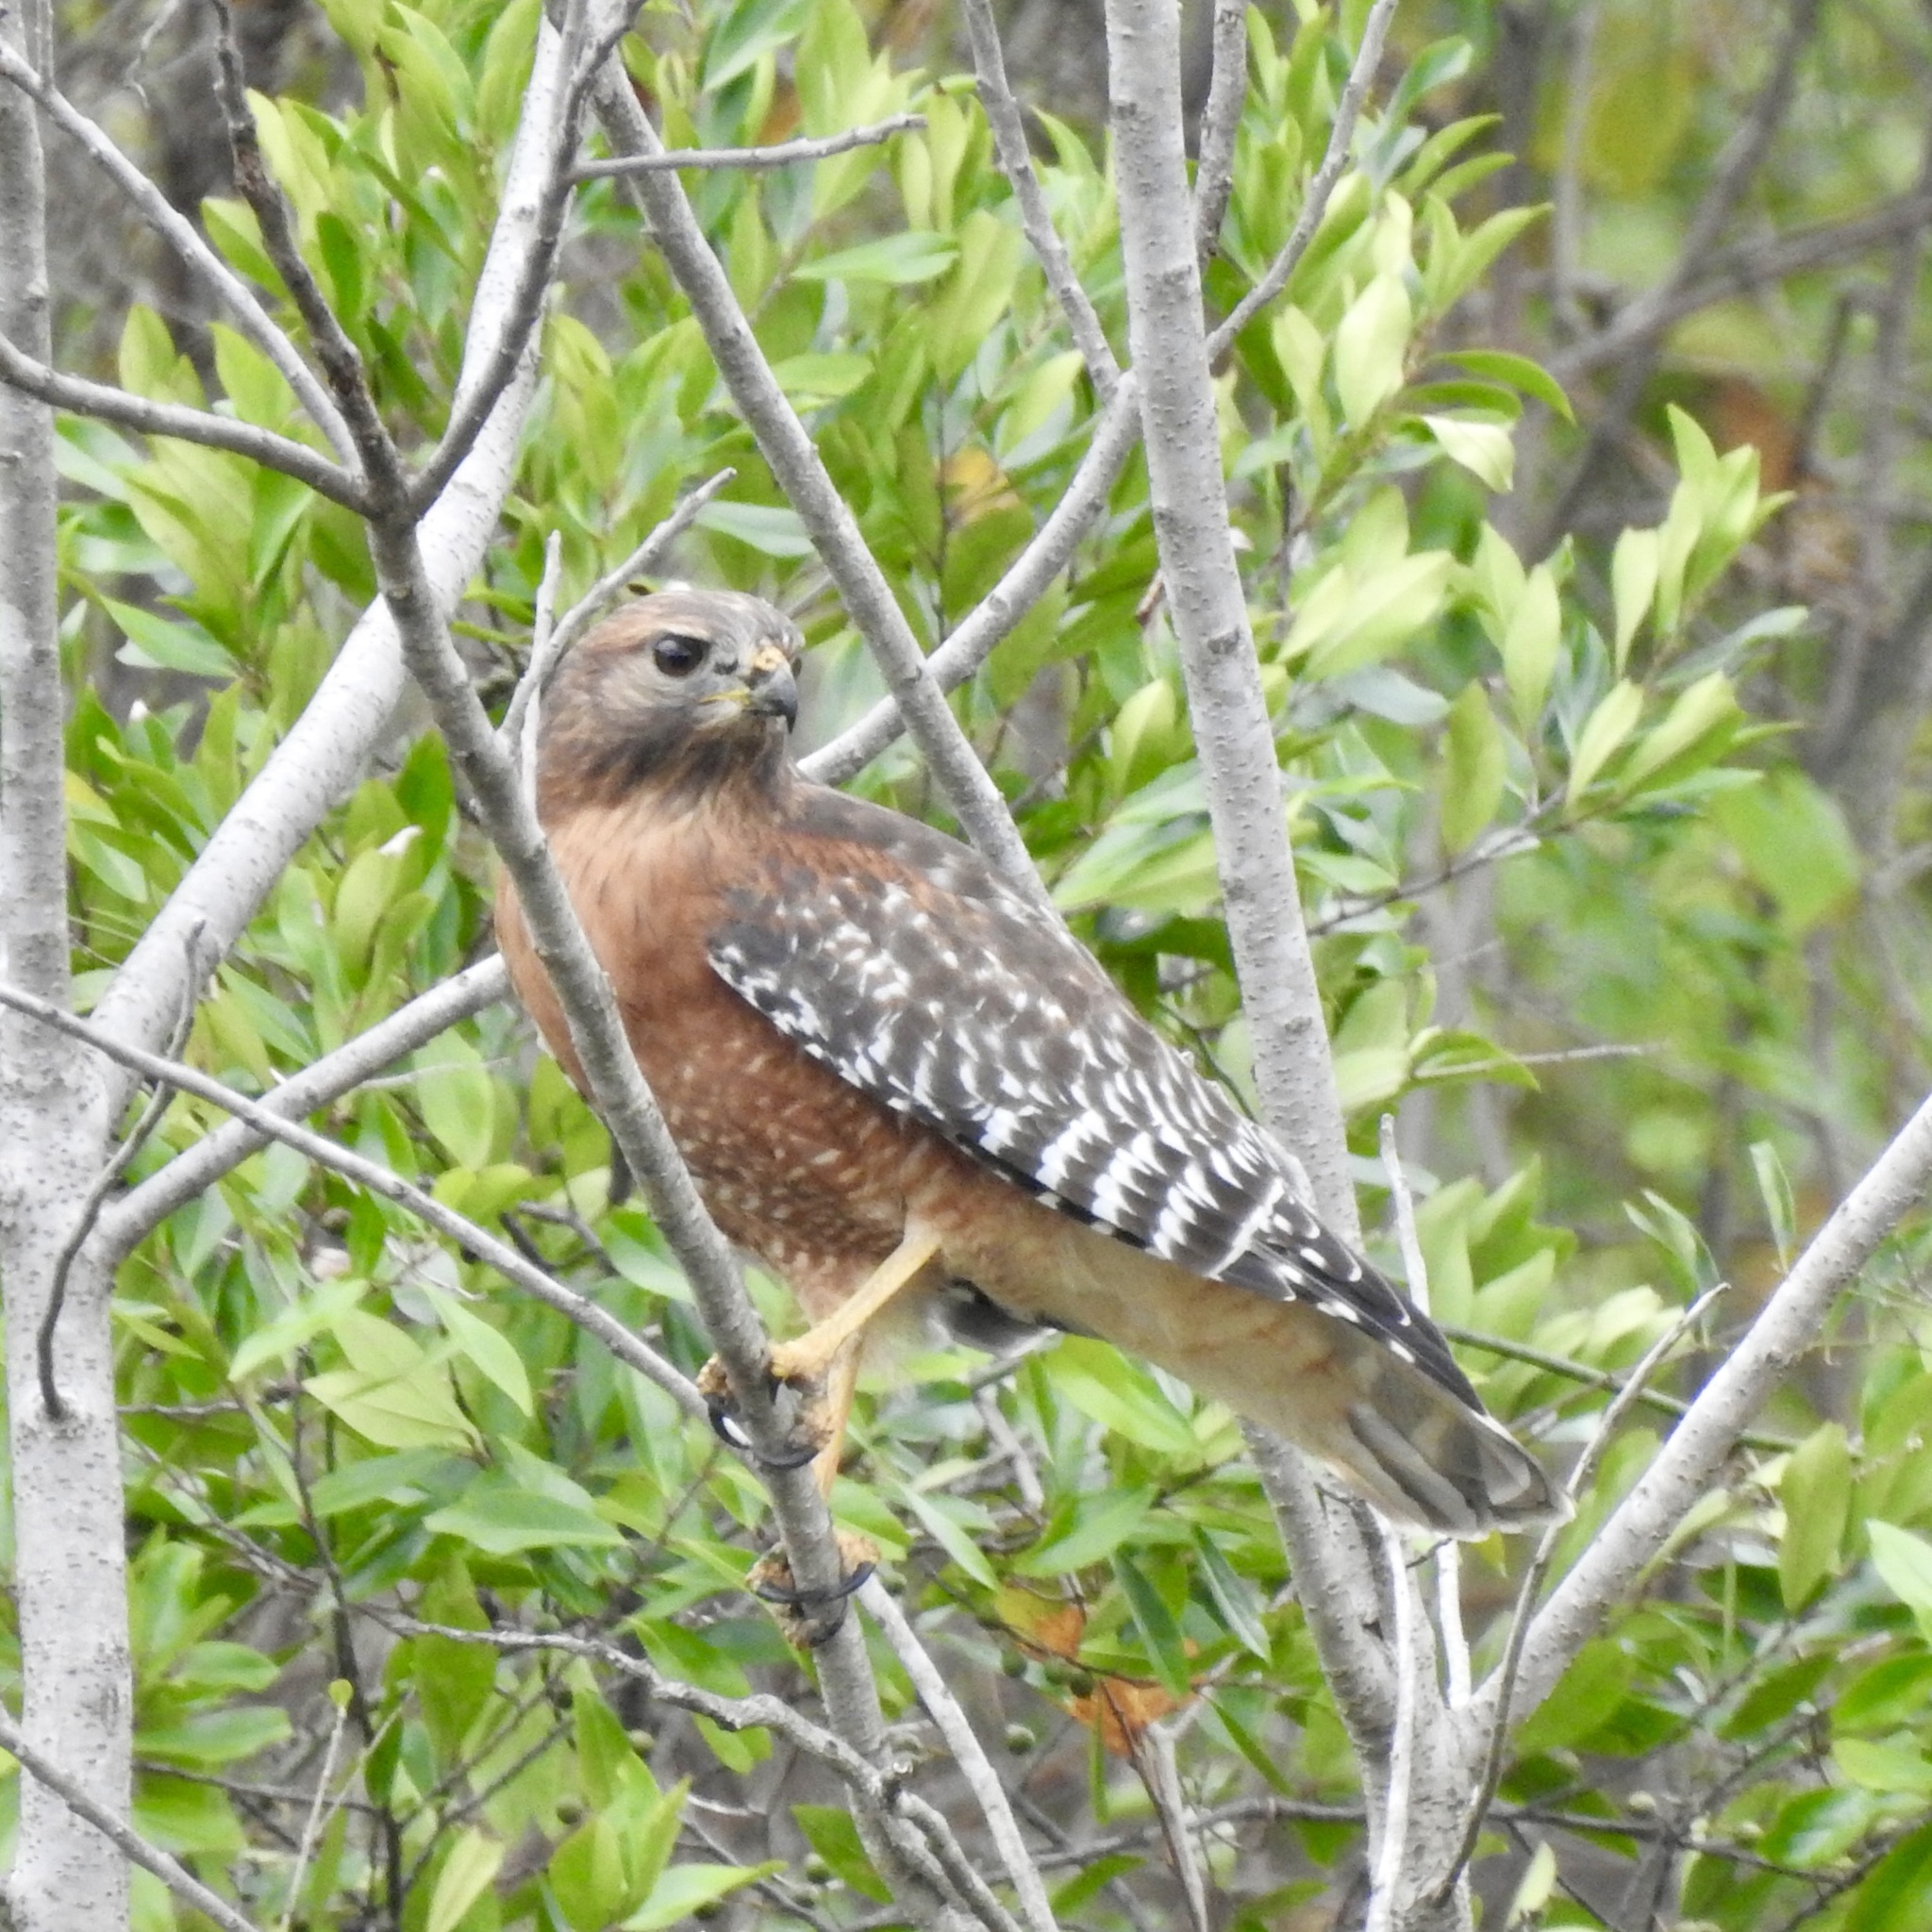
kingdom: Animalia
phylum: Chordata
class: Aves
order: Accipitriformes
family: Accipitridae
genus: Buteo
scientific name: Buteo lineatus
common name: Red-shouldered hawk
